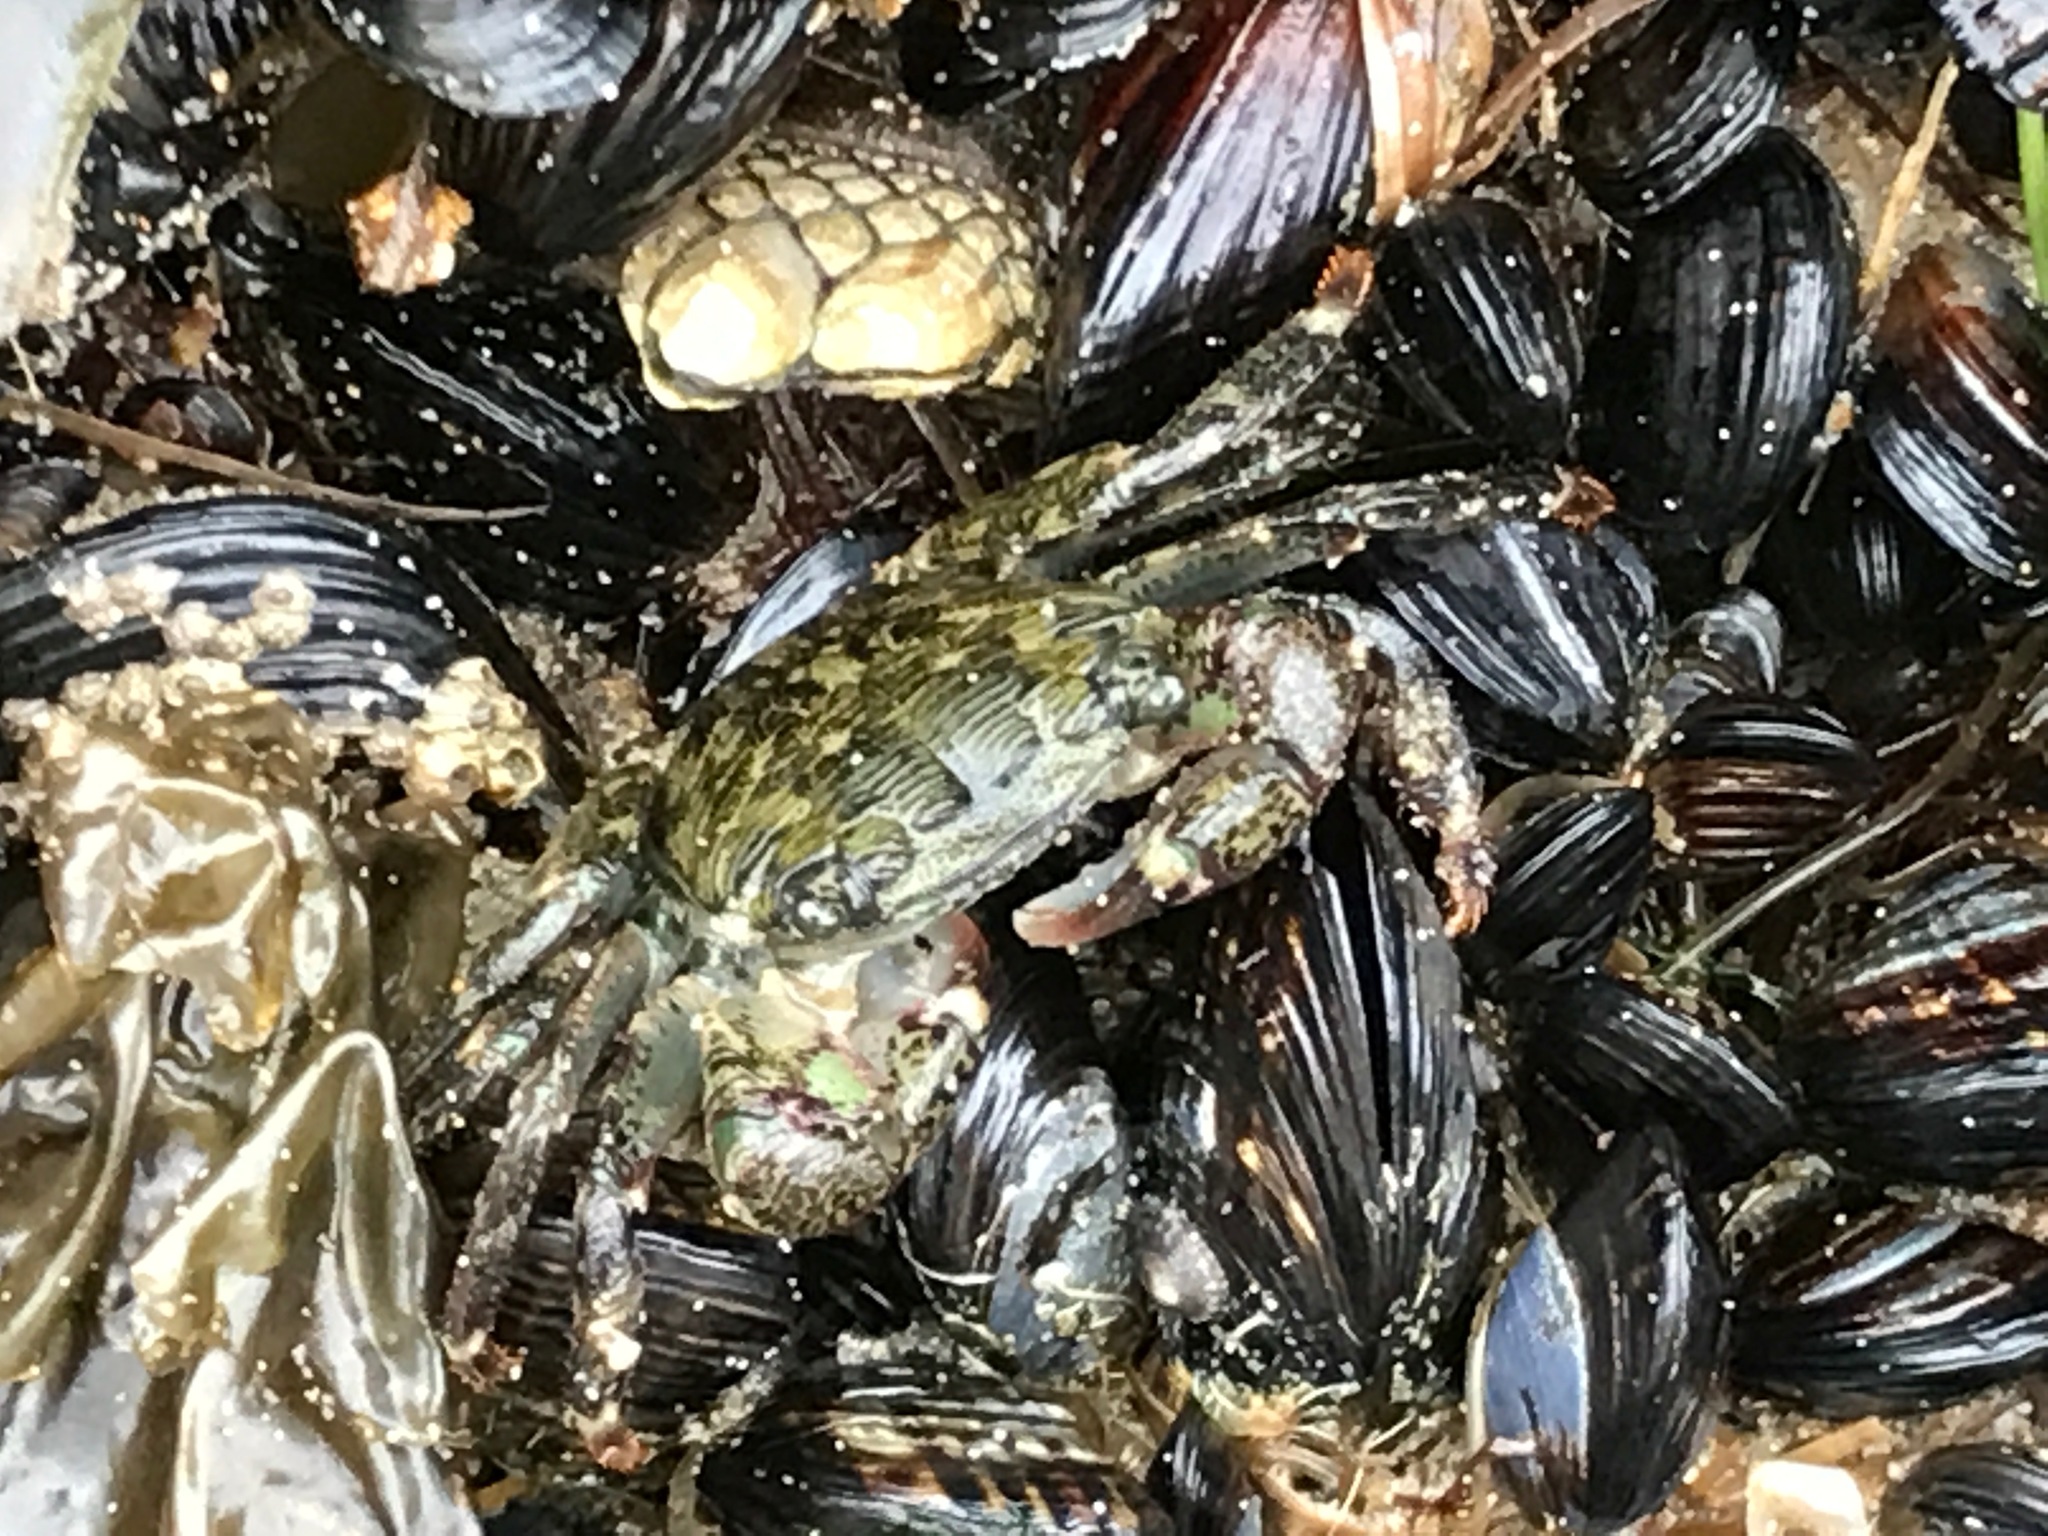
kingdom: Animalia
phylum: Arthropoda
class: Malacostraca
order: Decapoda
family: Grapsidae
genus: Pachygrapsus
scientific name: Pachygrapsus crassipes
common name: Striped shore crab
